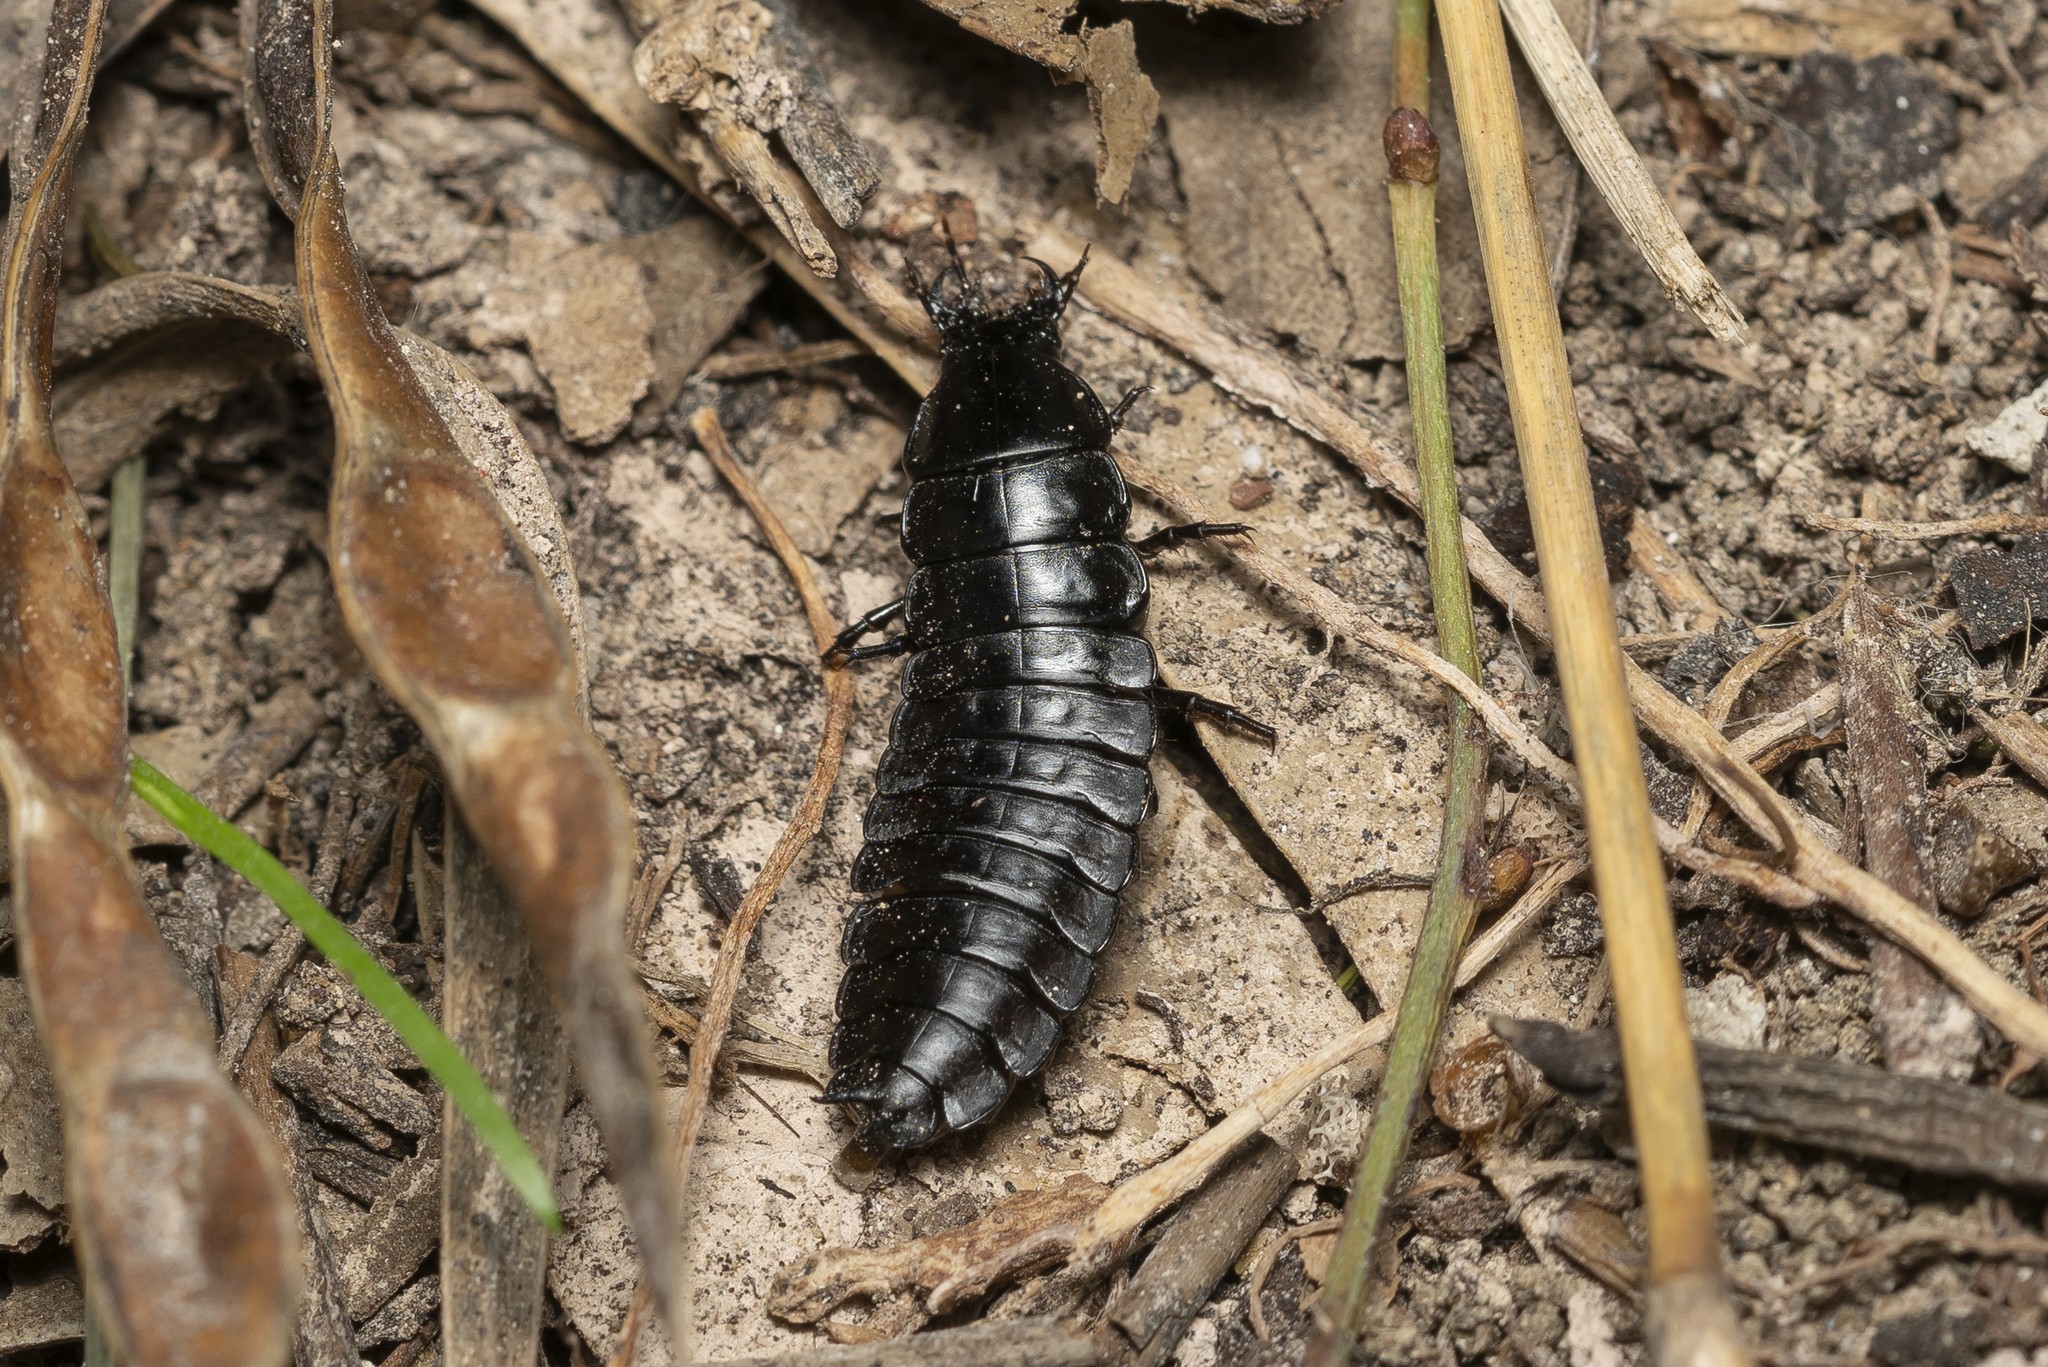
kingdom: Animalia
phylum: Arthropoda
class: Insecta
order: Coleoptera
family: Carabidae
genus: Carabus
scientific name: Carabus coriaceus
